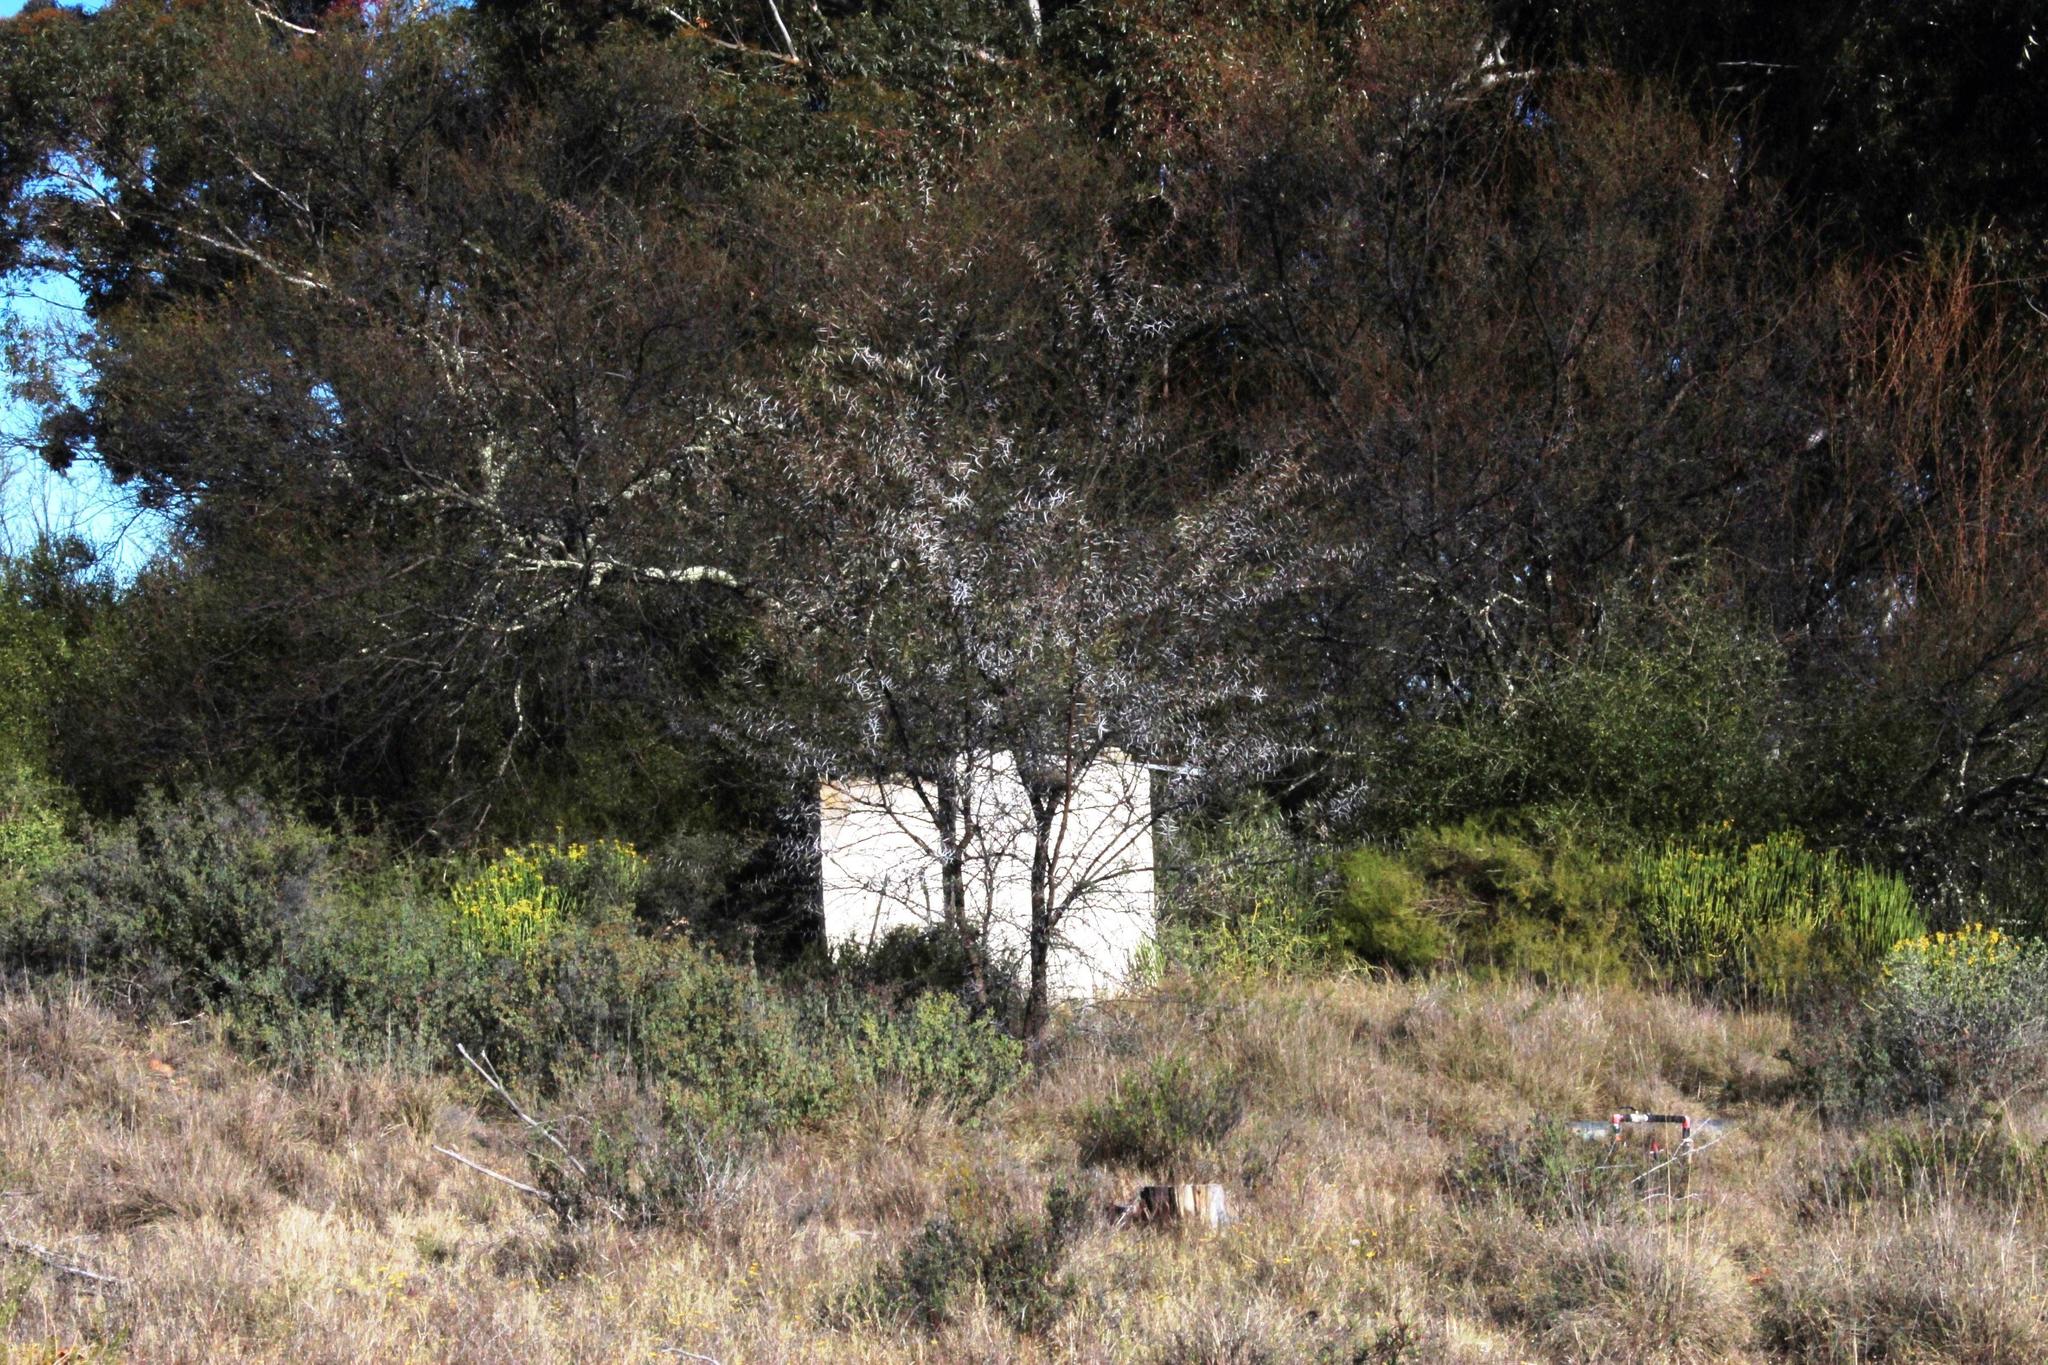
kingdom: Plantae
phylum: Tracheophyta
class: Magnoliopsida
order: Fabales
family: Fabaceae
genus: Vachellia
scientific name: Vachellia karroo
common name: Sweet thorn
